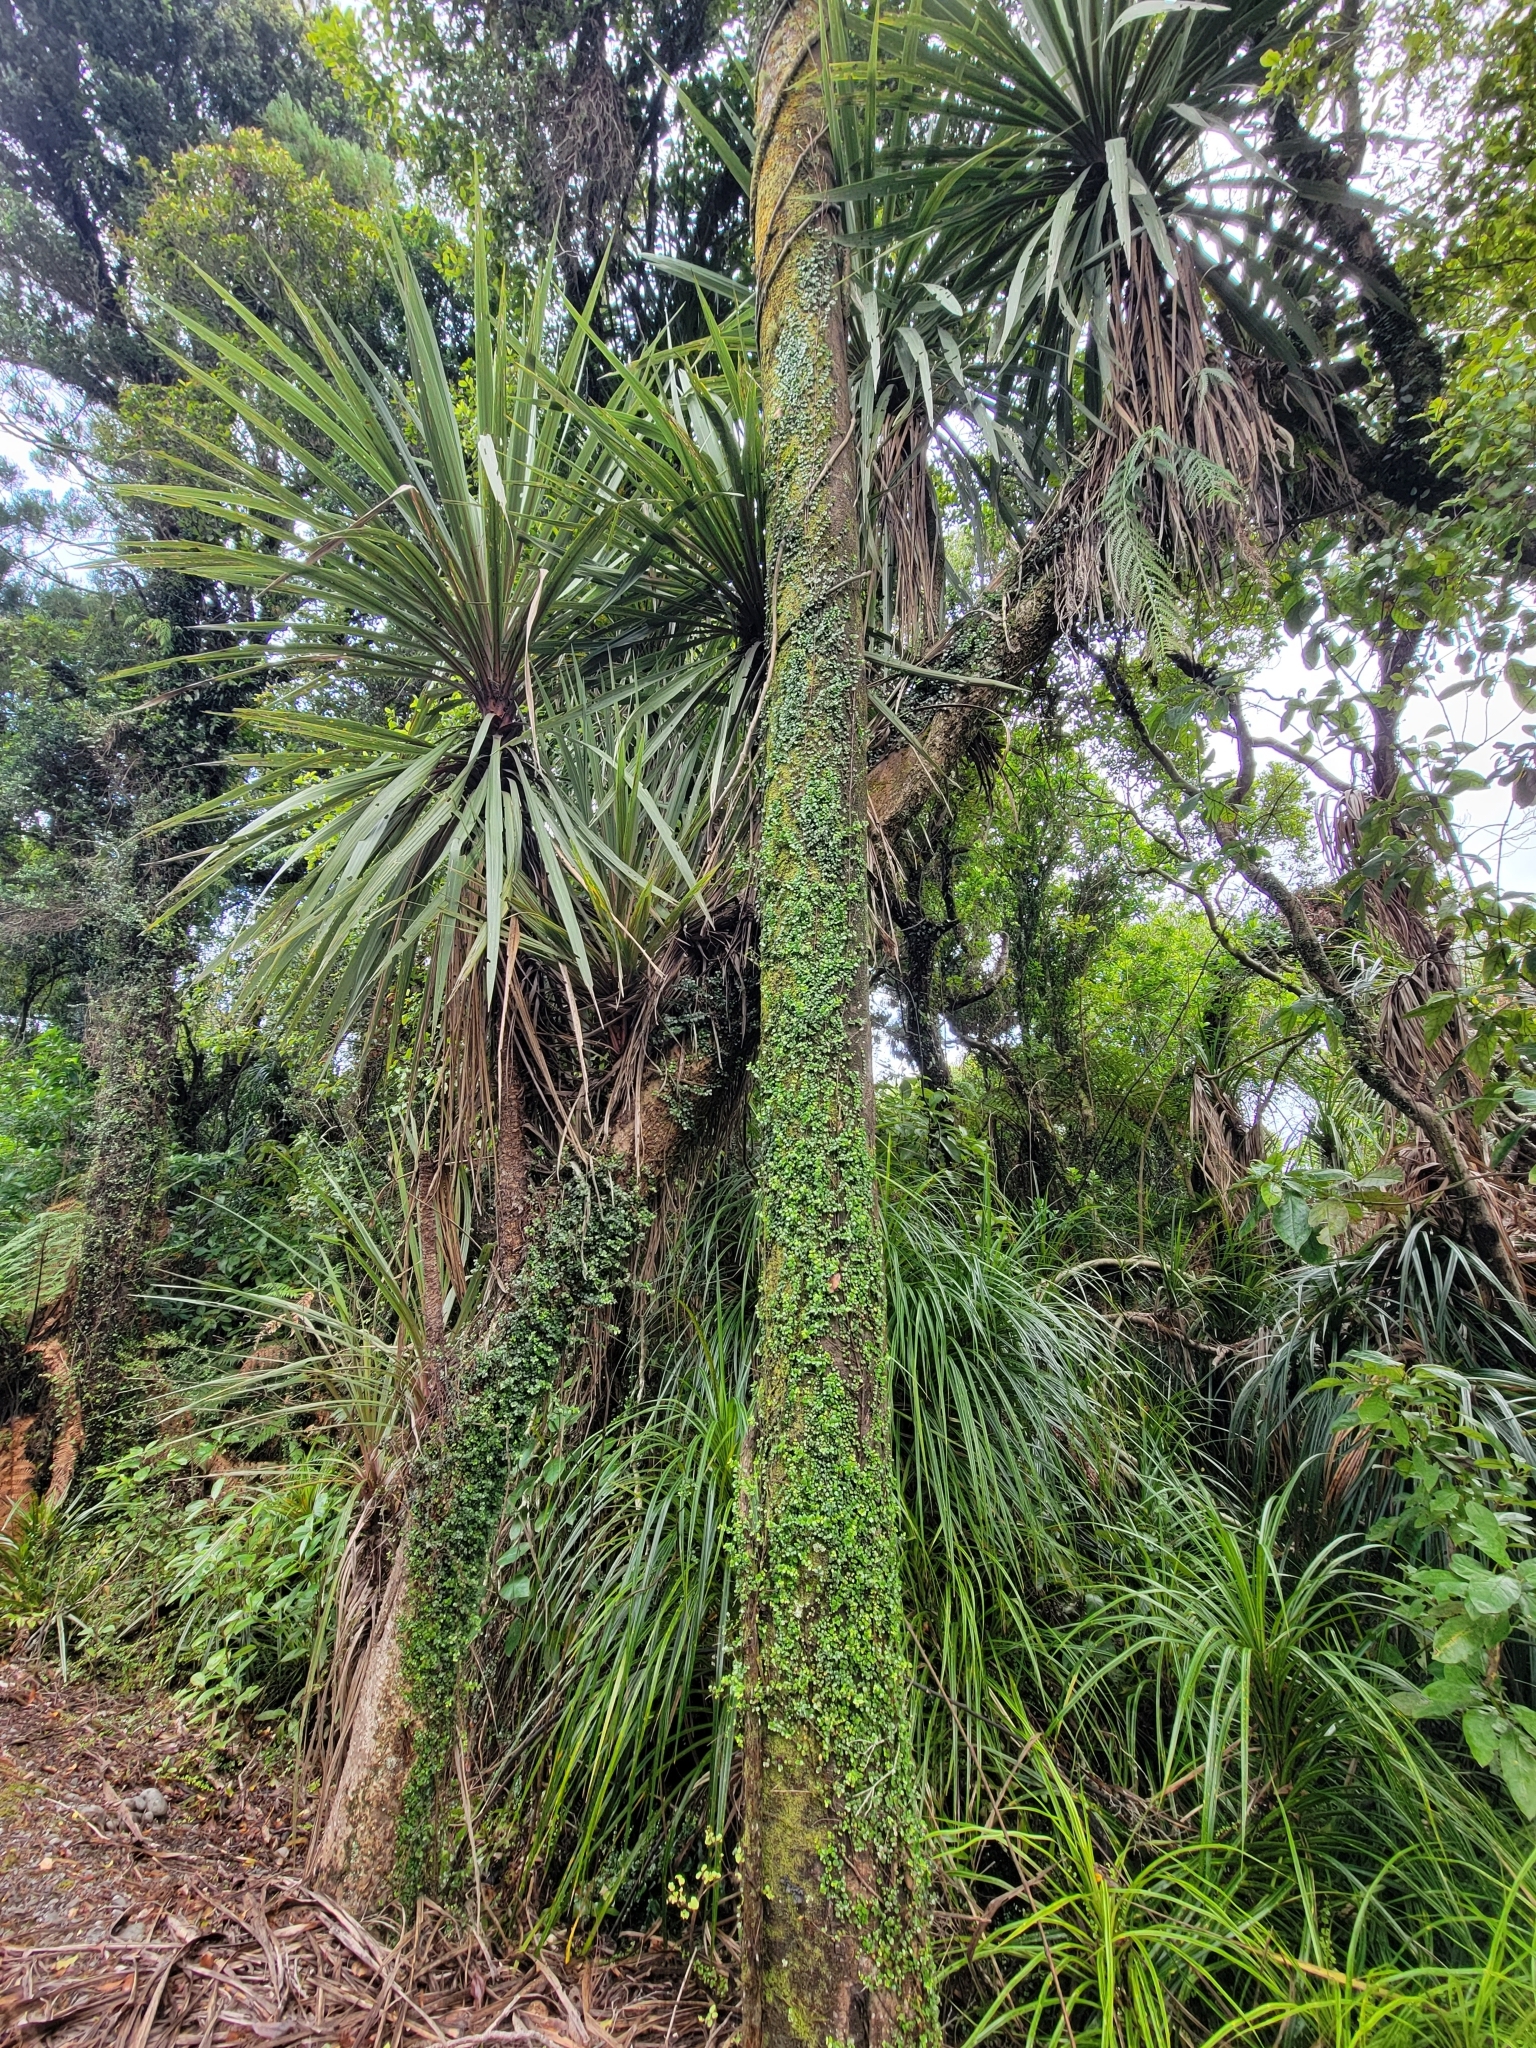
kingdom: Plantae
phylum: Tracheophyta
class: Liliopsida
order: Pandanales
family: Pandanaceae
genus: Freycinetia
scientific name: Freycinetia banksii
